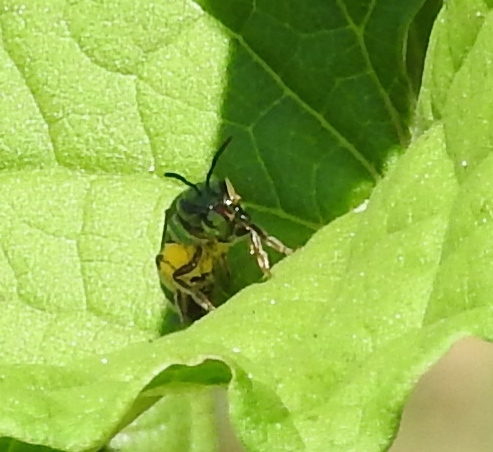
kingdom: Animalia
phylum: Arthropoda
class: Insecta
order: Hymenoptera
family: Halictidae
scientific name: Halictidae
